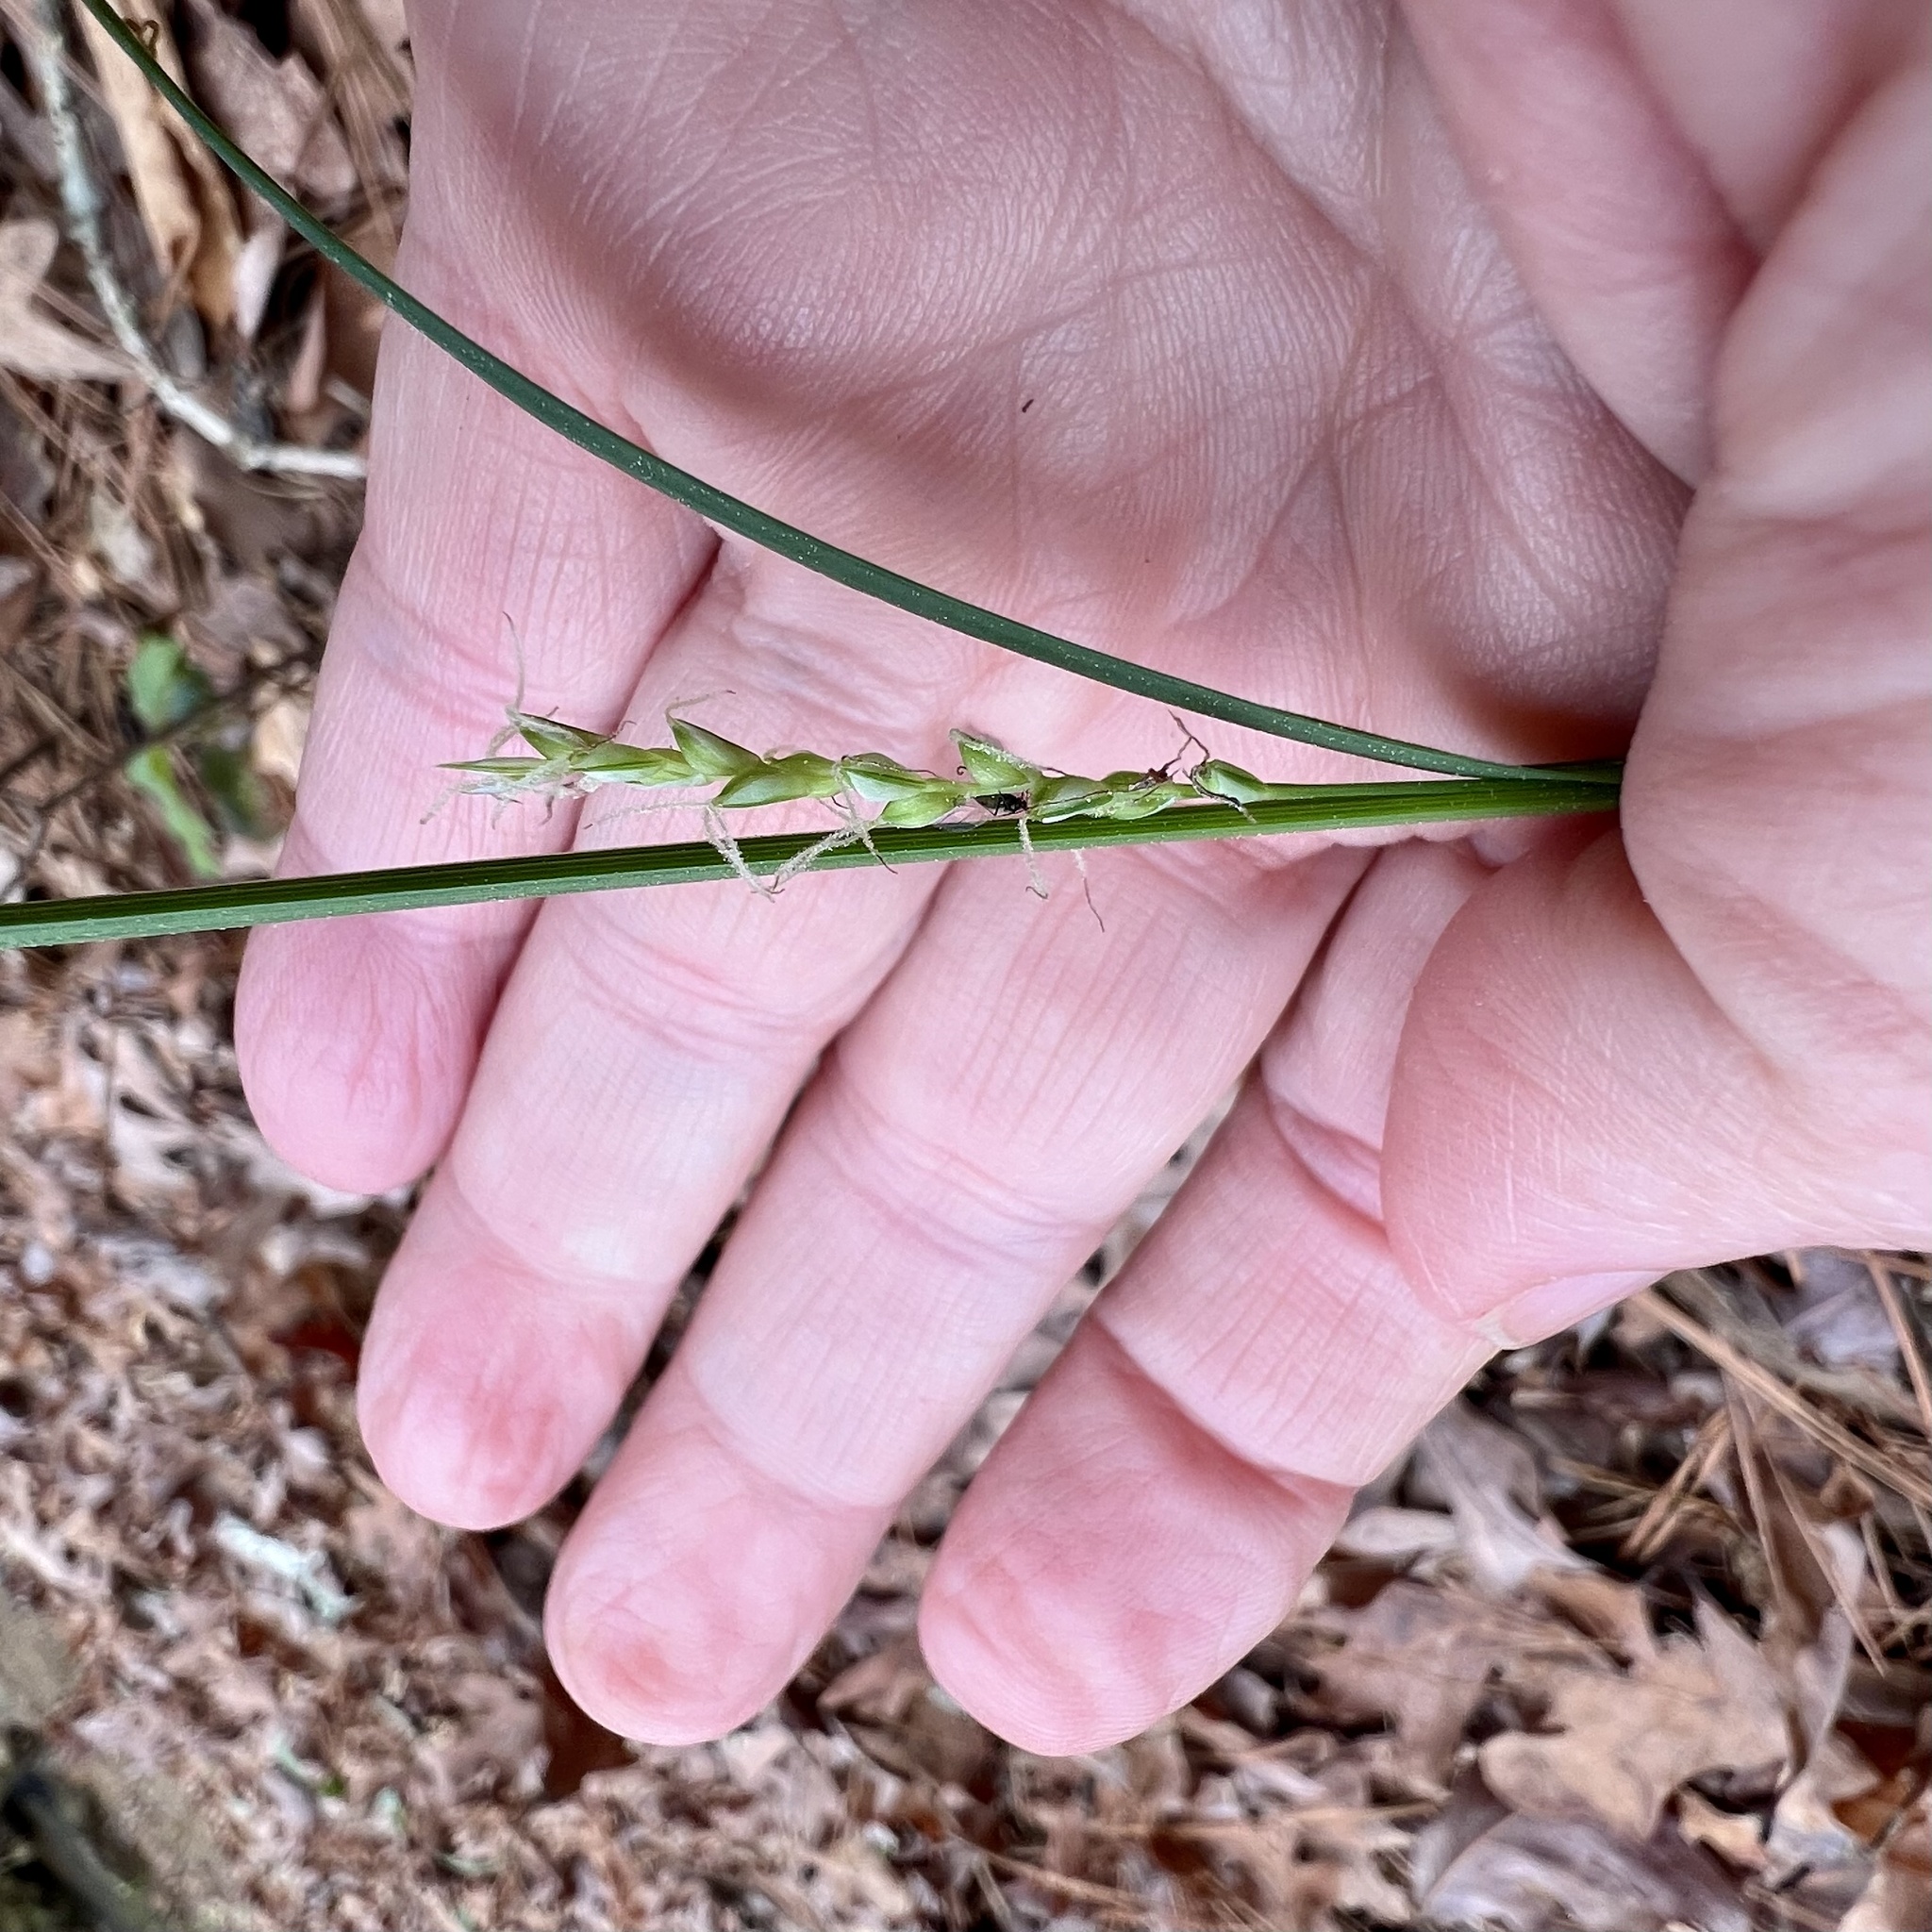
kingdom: Plantae
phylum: Tracheophyta
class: Liliopsida
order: Poales
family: Cyperaceae
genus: Carex
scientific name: Carex ignota
